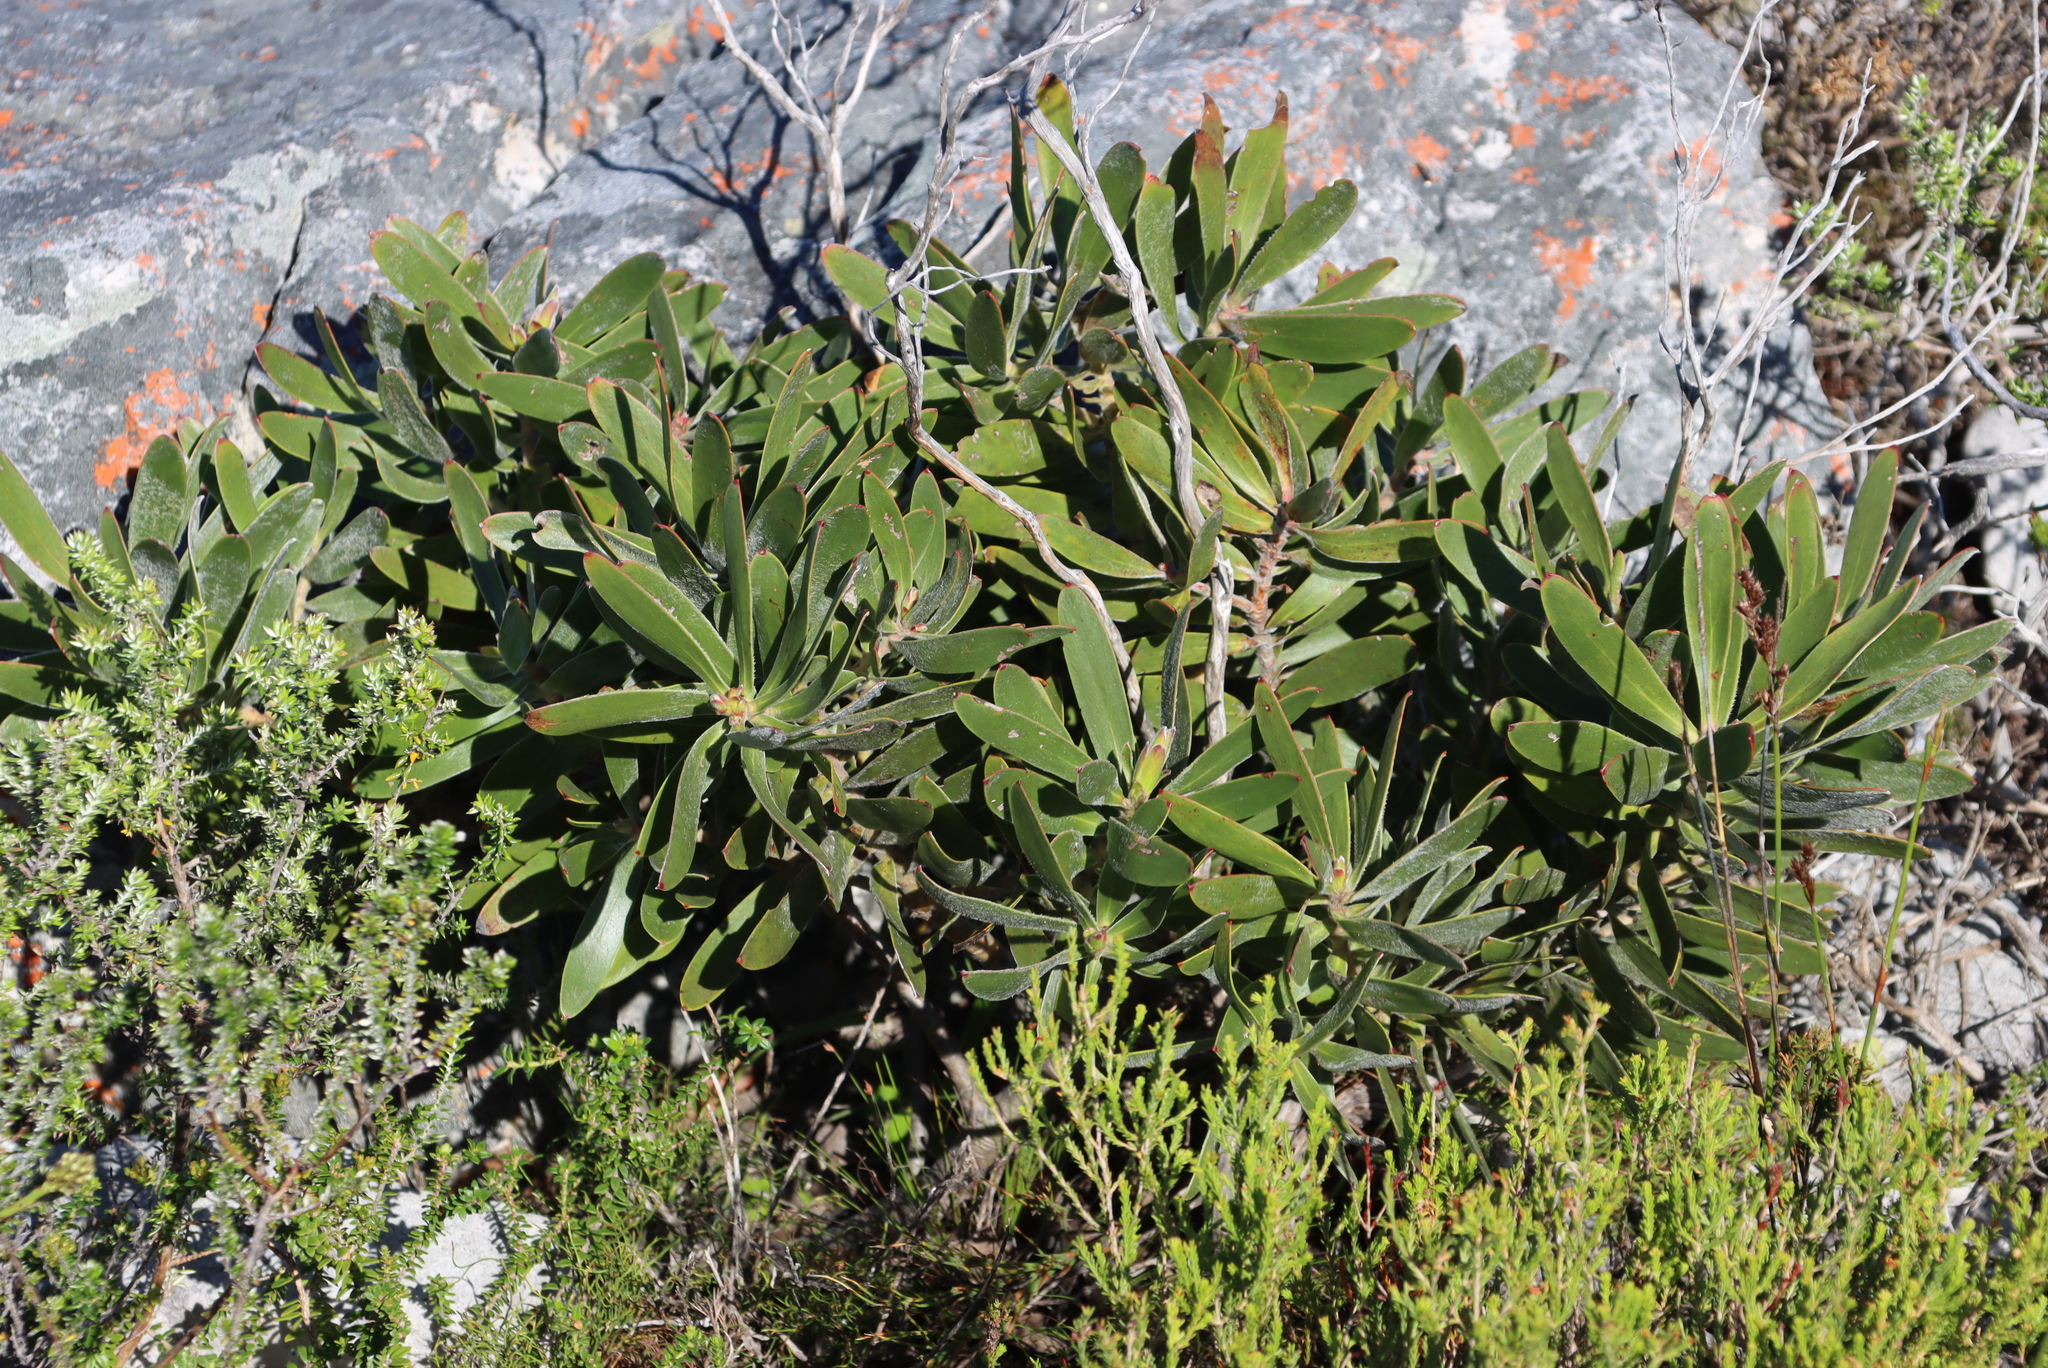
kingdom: Plantae
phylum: Tracheophyta
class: Magnoliopsida
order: Proteales
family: Proteaceae
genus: Leucadendron
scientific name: Leucadendron laureolum
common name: Golden sunshinebush
